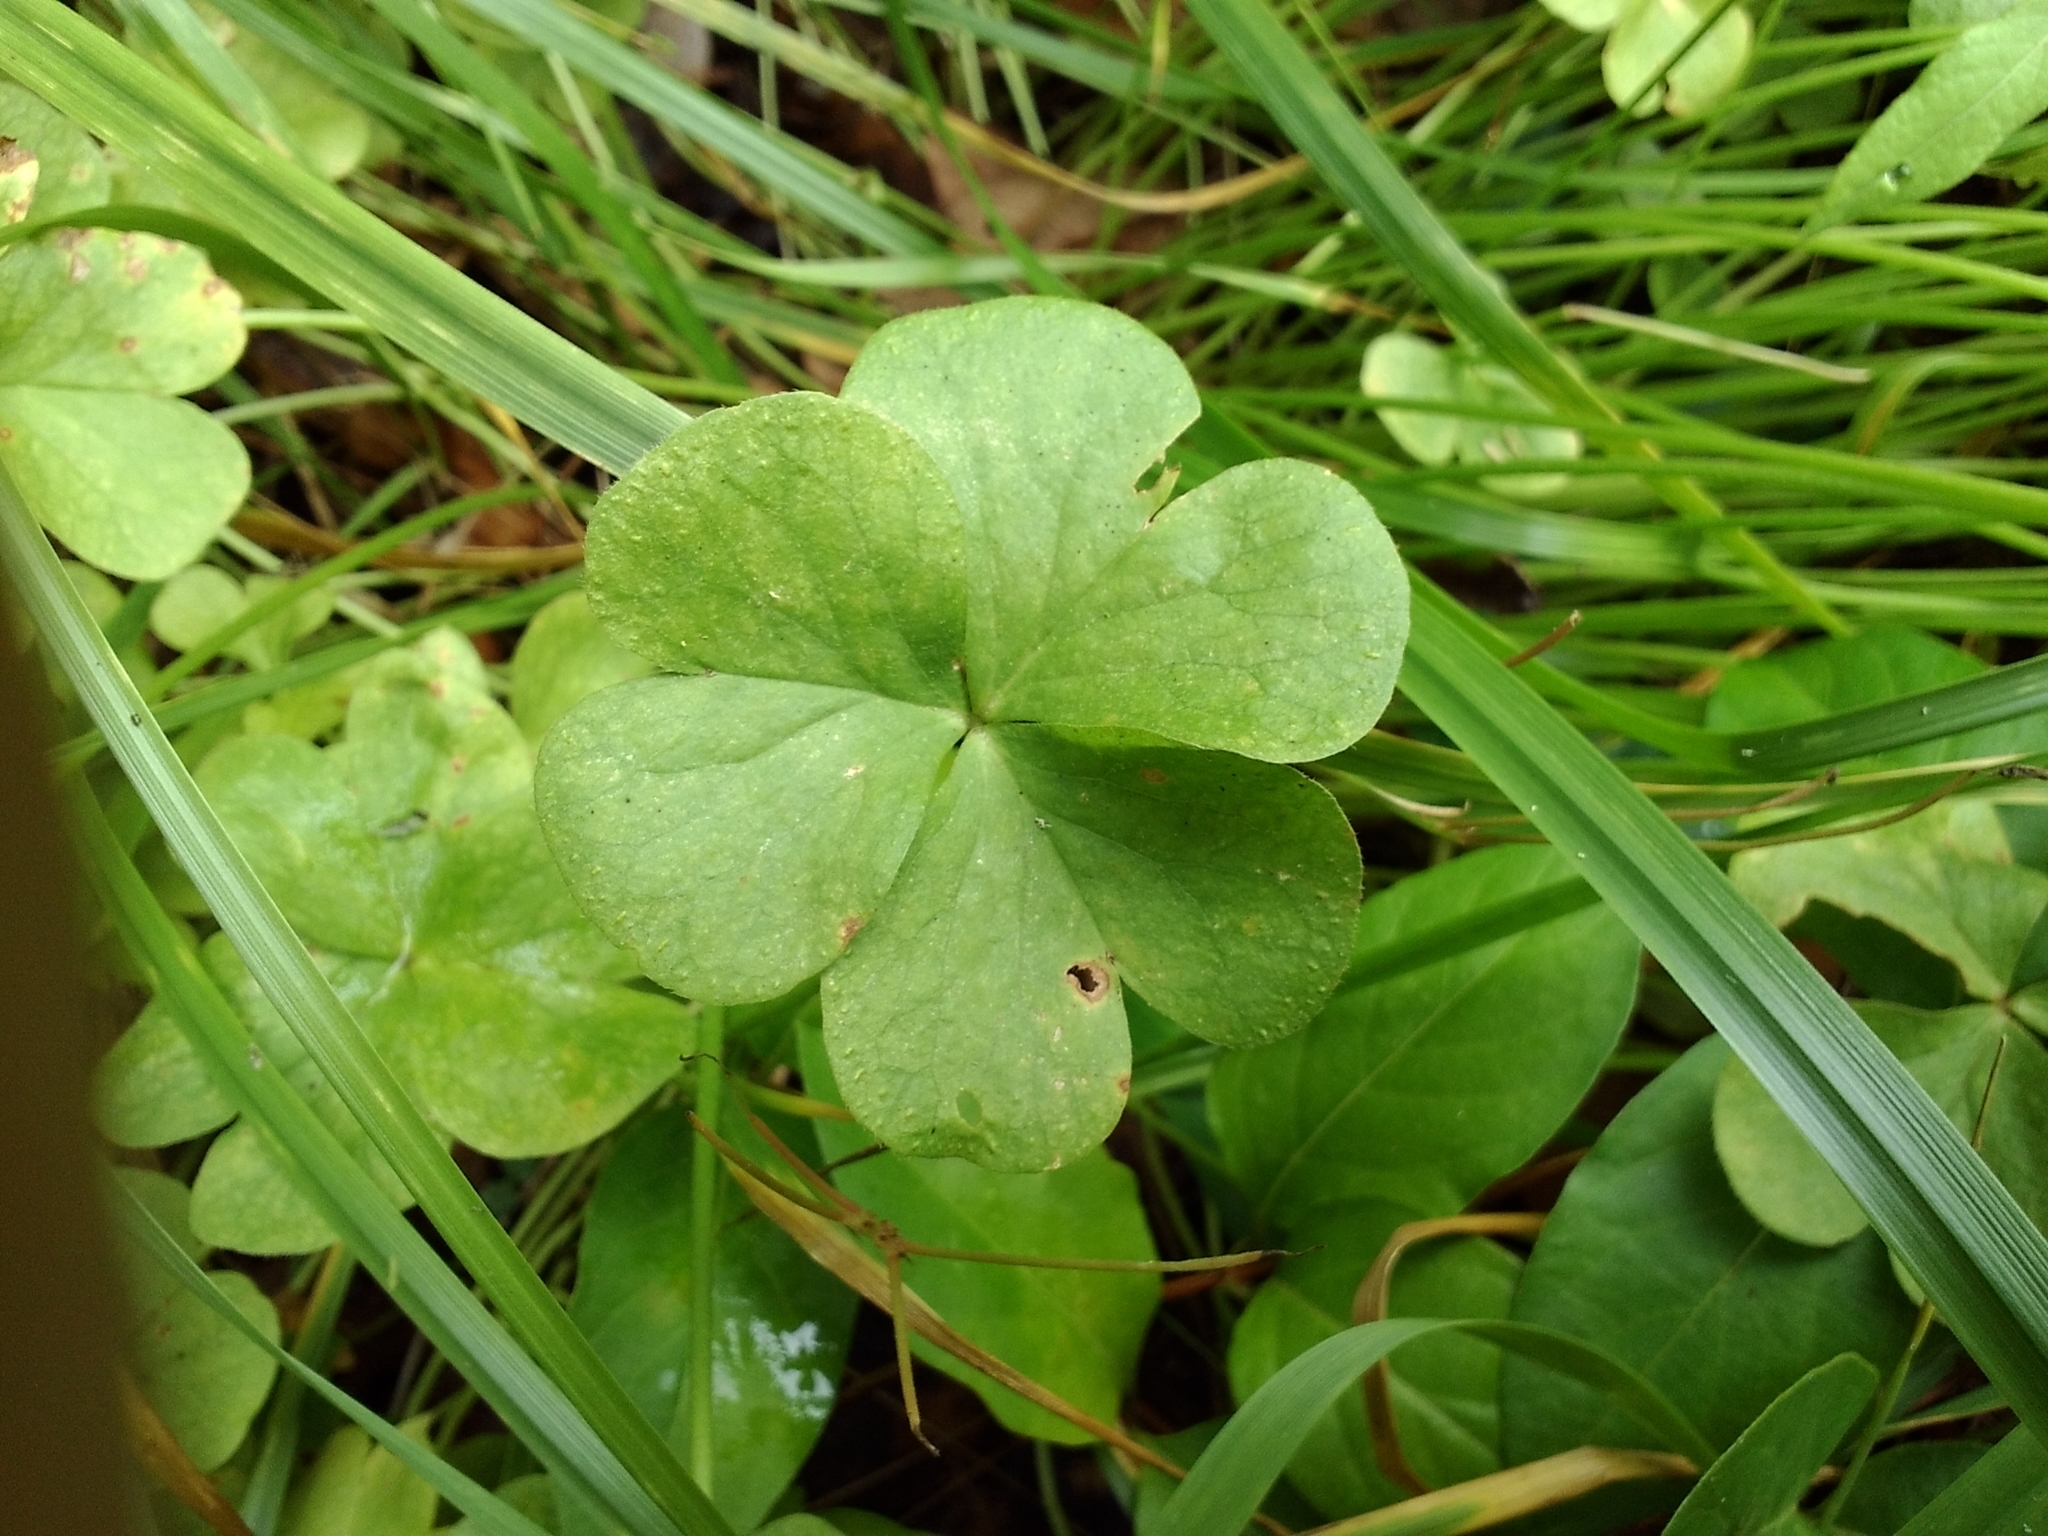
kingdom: Plantae
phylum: Tracheophyta
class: Magnoliopsida
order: Oxalidales
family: Oxalidaceae
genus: Oxalis
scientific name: Oxalis articulata
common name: Pink-sorrel
